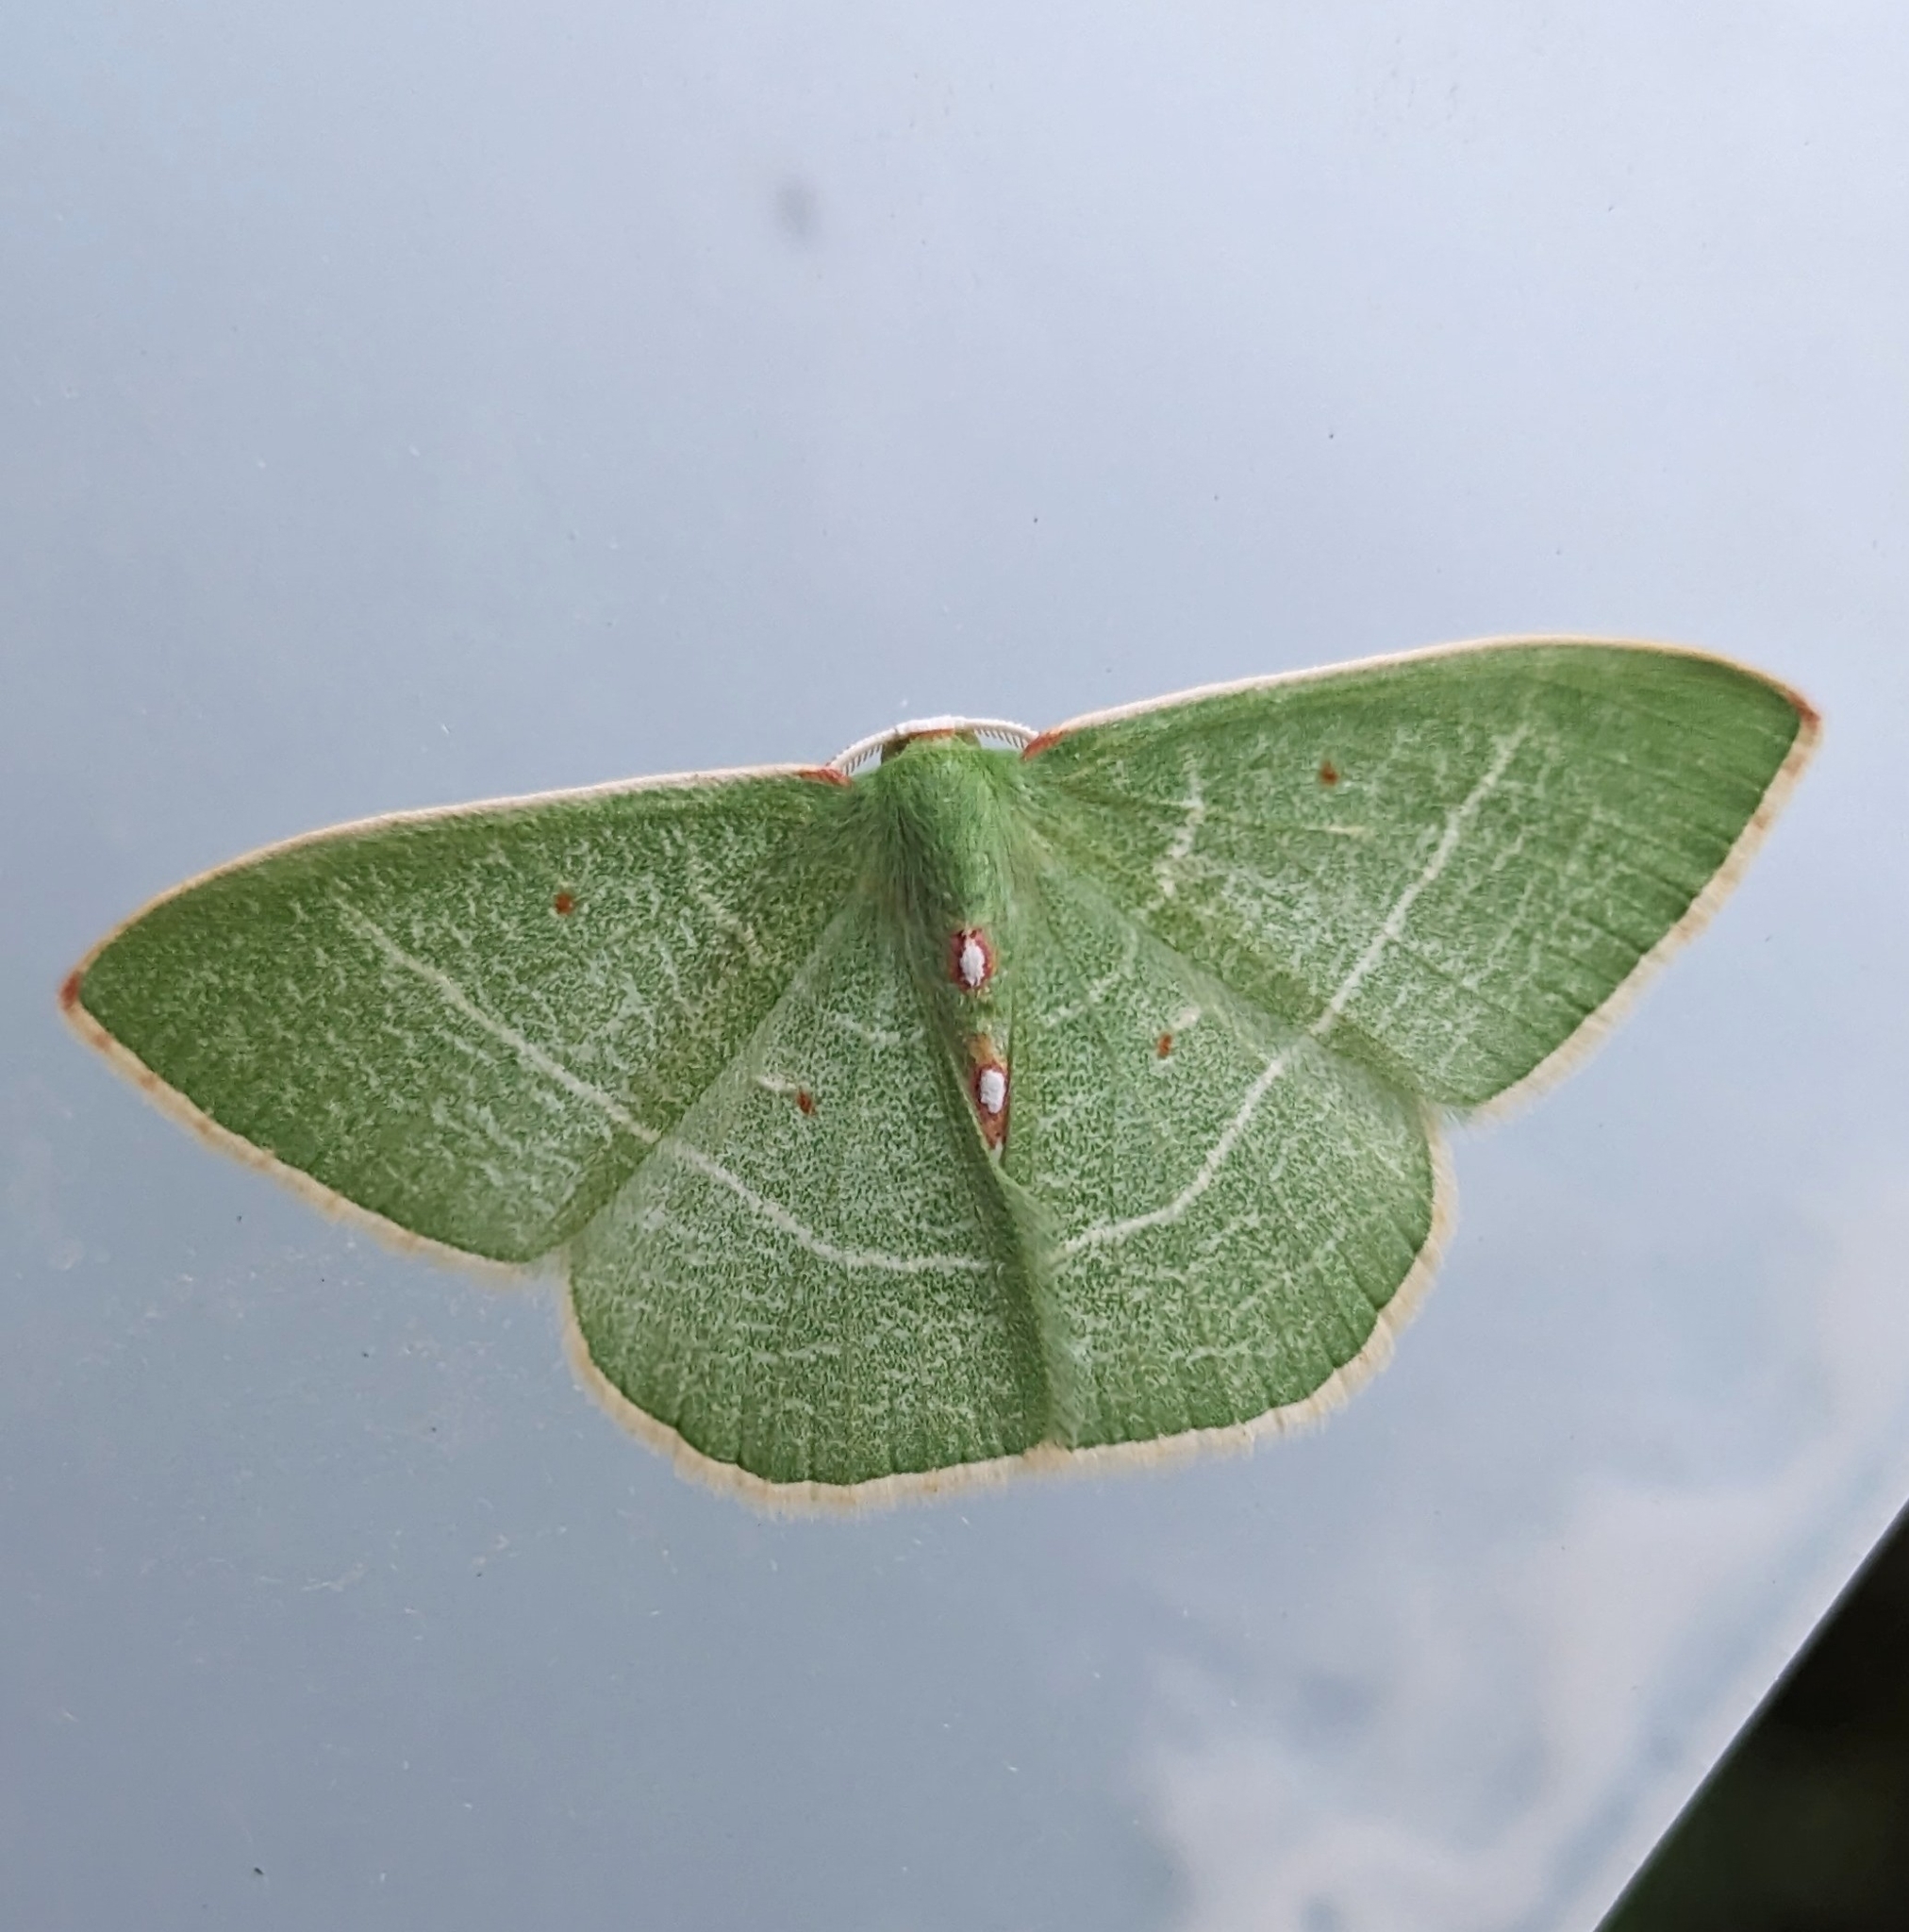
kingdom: Animalia
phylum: Arthropoda
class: Insecta
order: Lepidoptera
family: Geometridae
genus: Nemoria
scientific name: Nemoria darwiniata
